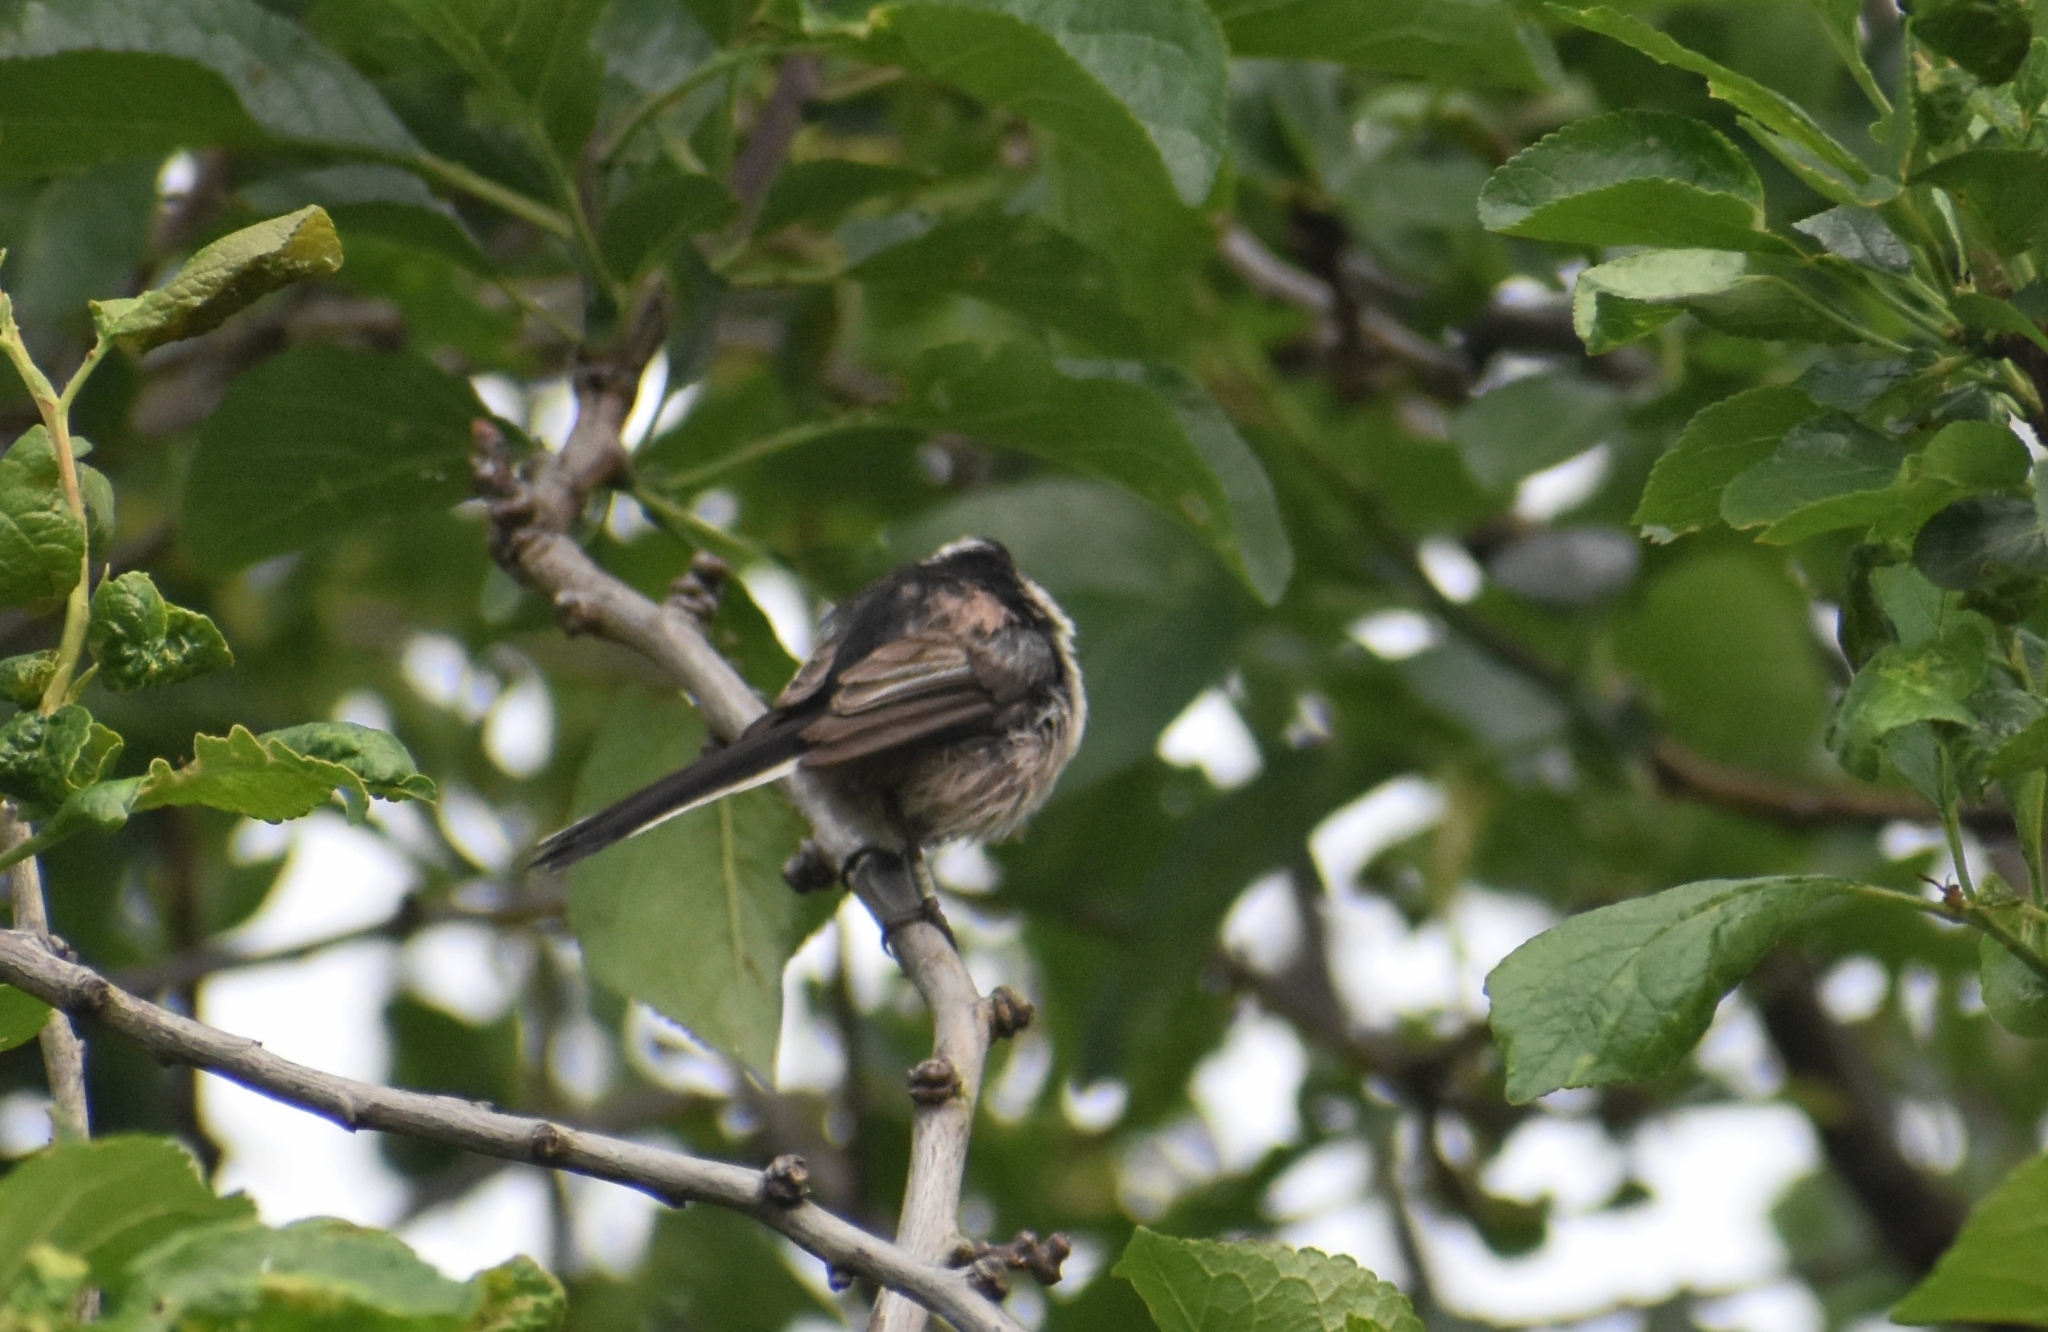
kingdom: Animalia
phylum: Chordata
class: Aves
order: Passeriformes
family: Aegithalidae
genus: Aegithalos
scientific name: Aegithalos caudatus
